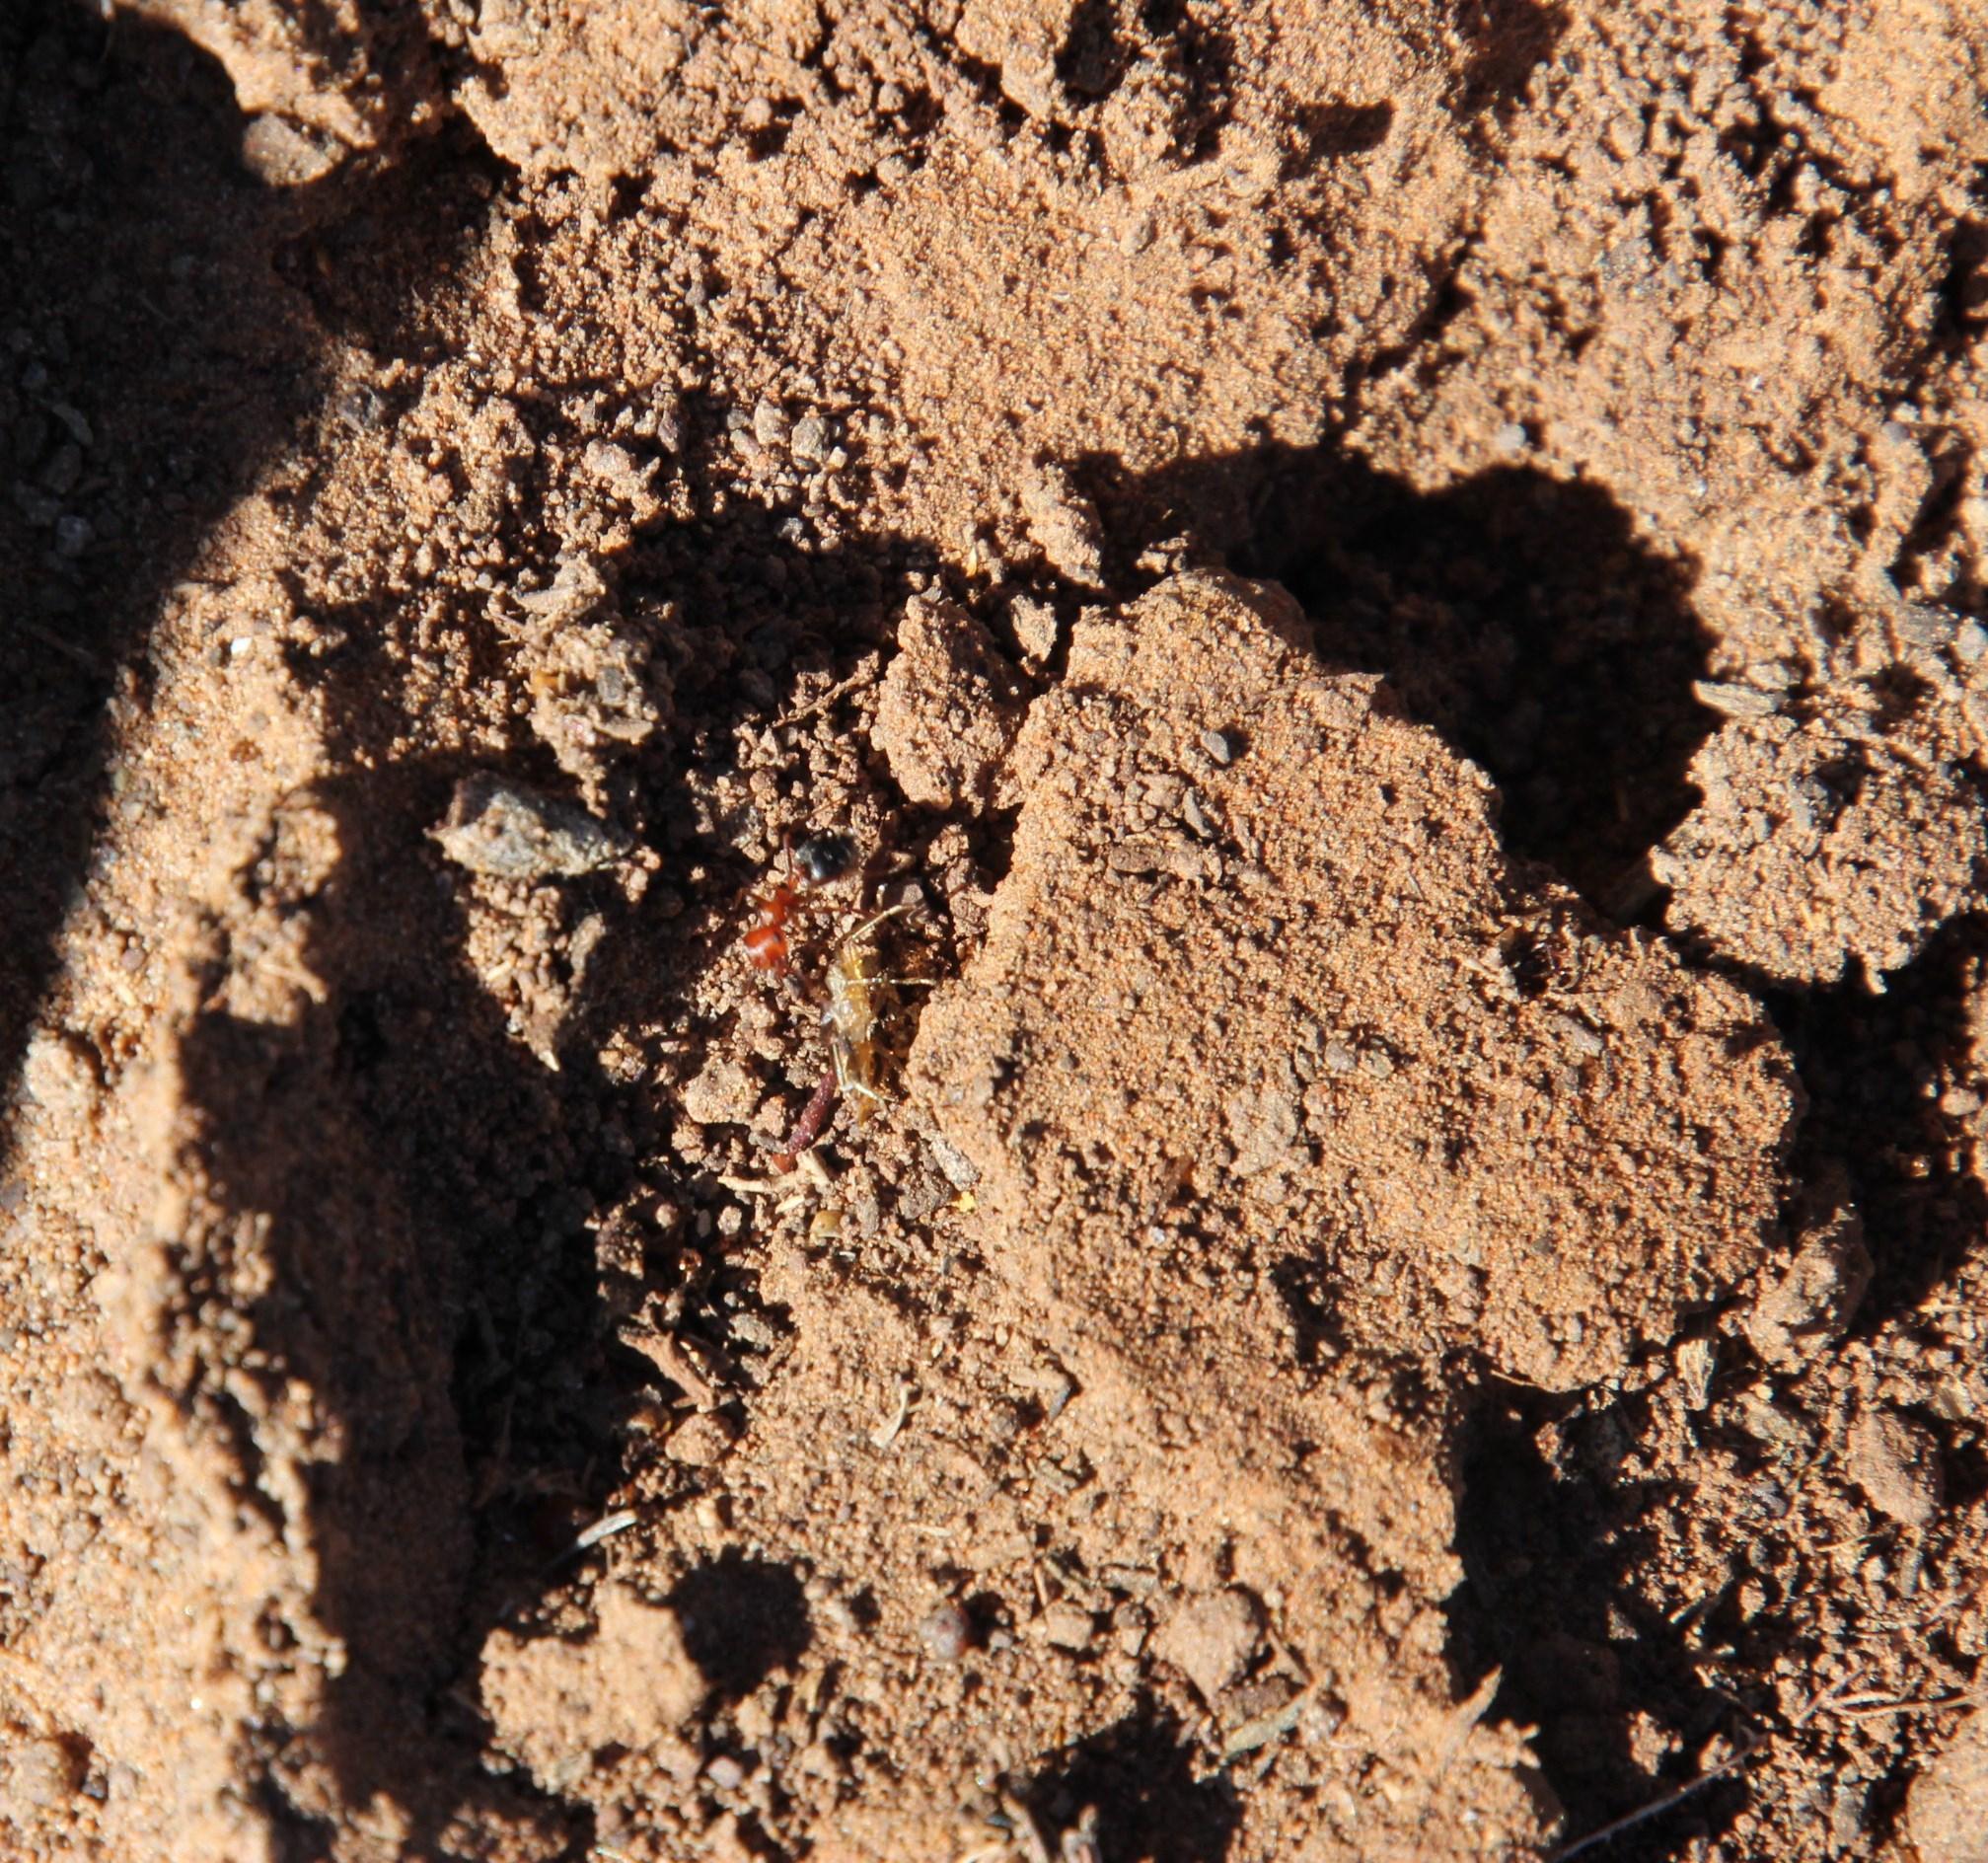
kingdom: Animalia
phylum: Arthropoda
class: Insecta
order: Hymenoptera
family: Formicidae
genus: Crematogaster
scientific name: Crematogaster melanogaster
